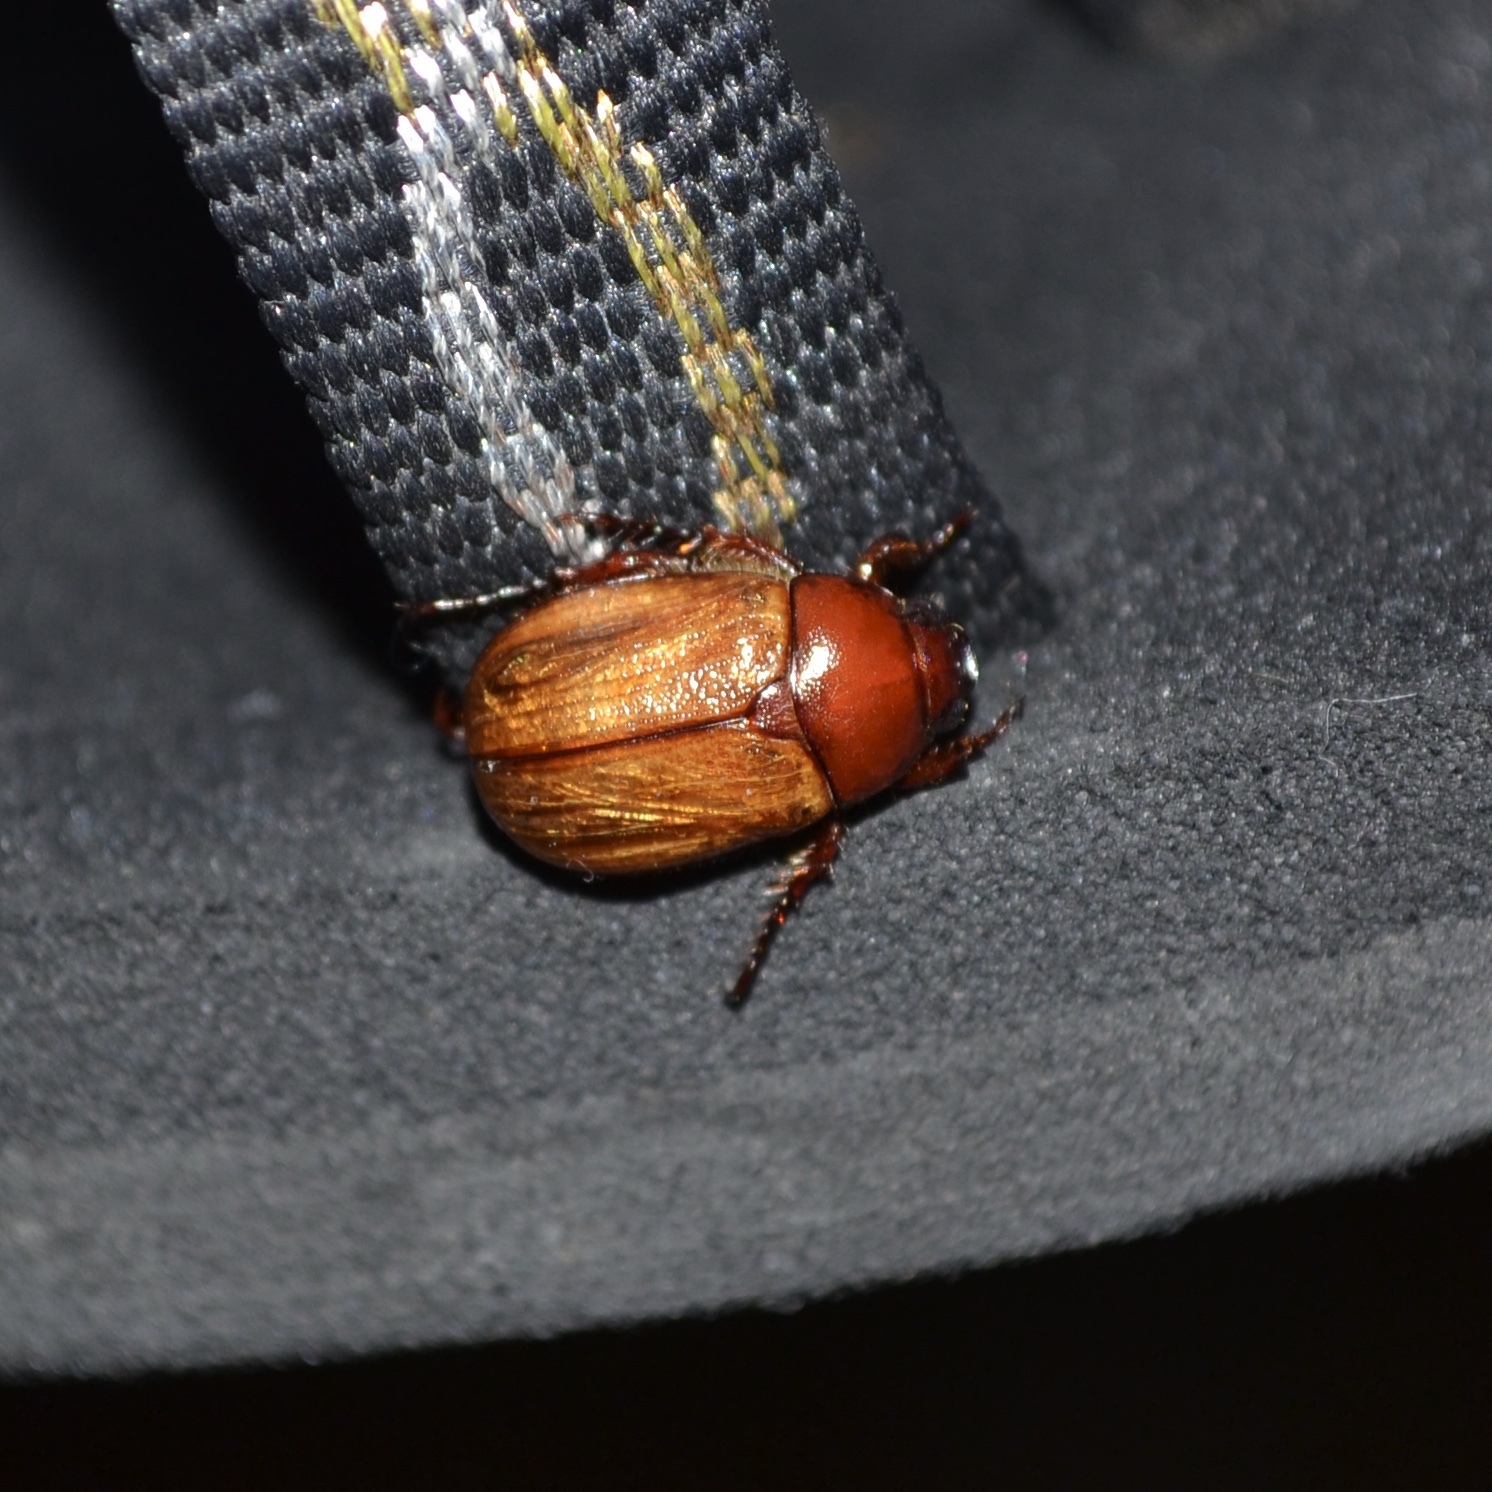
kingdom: Animalia
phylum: Arthropoda
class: Insecta
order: Coleoptera
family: Scarabaeidae
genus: Paranomala
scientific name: Paranomala flavipennis
